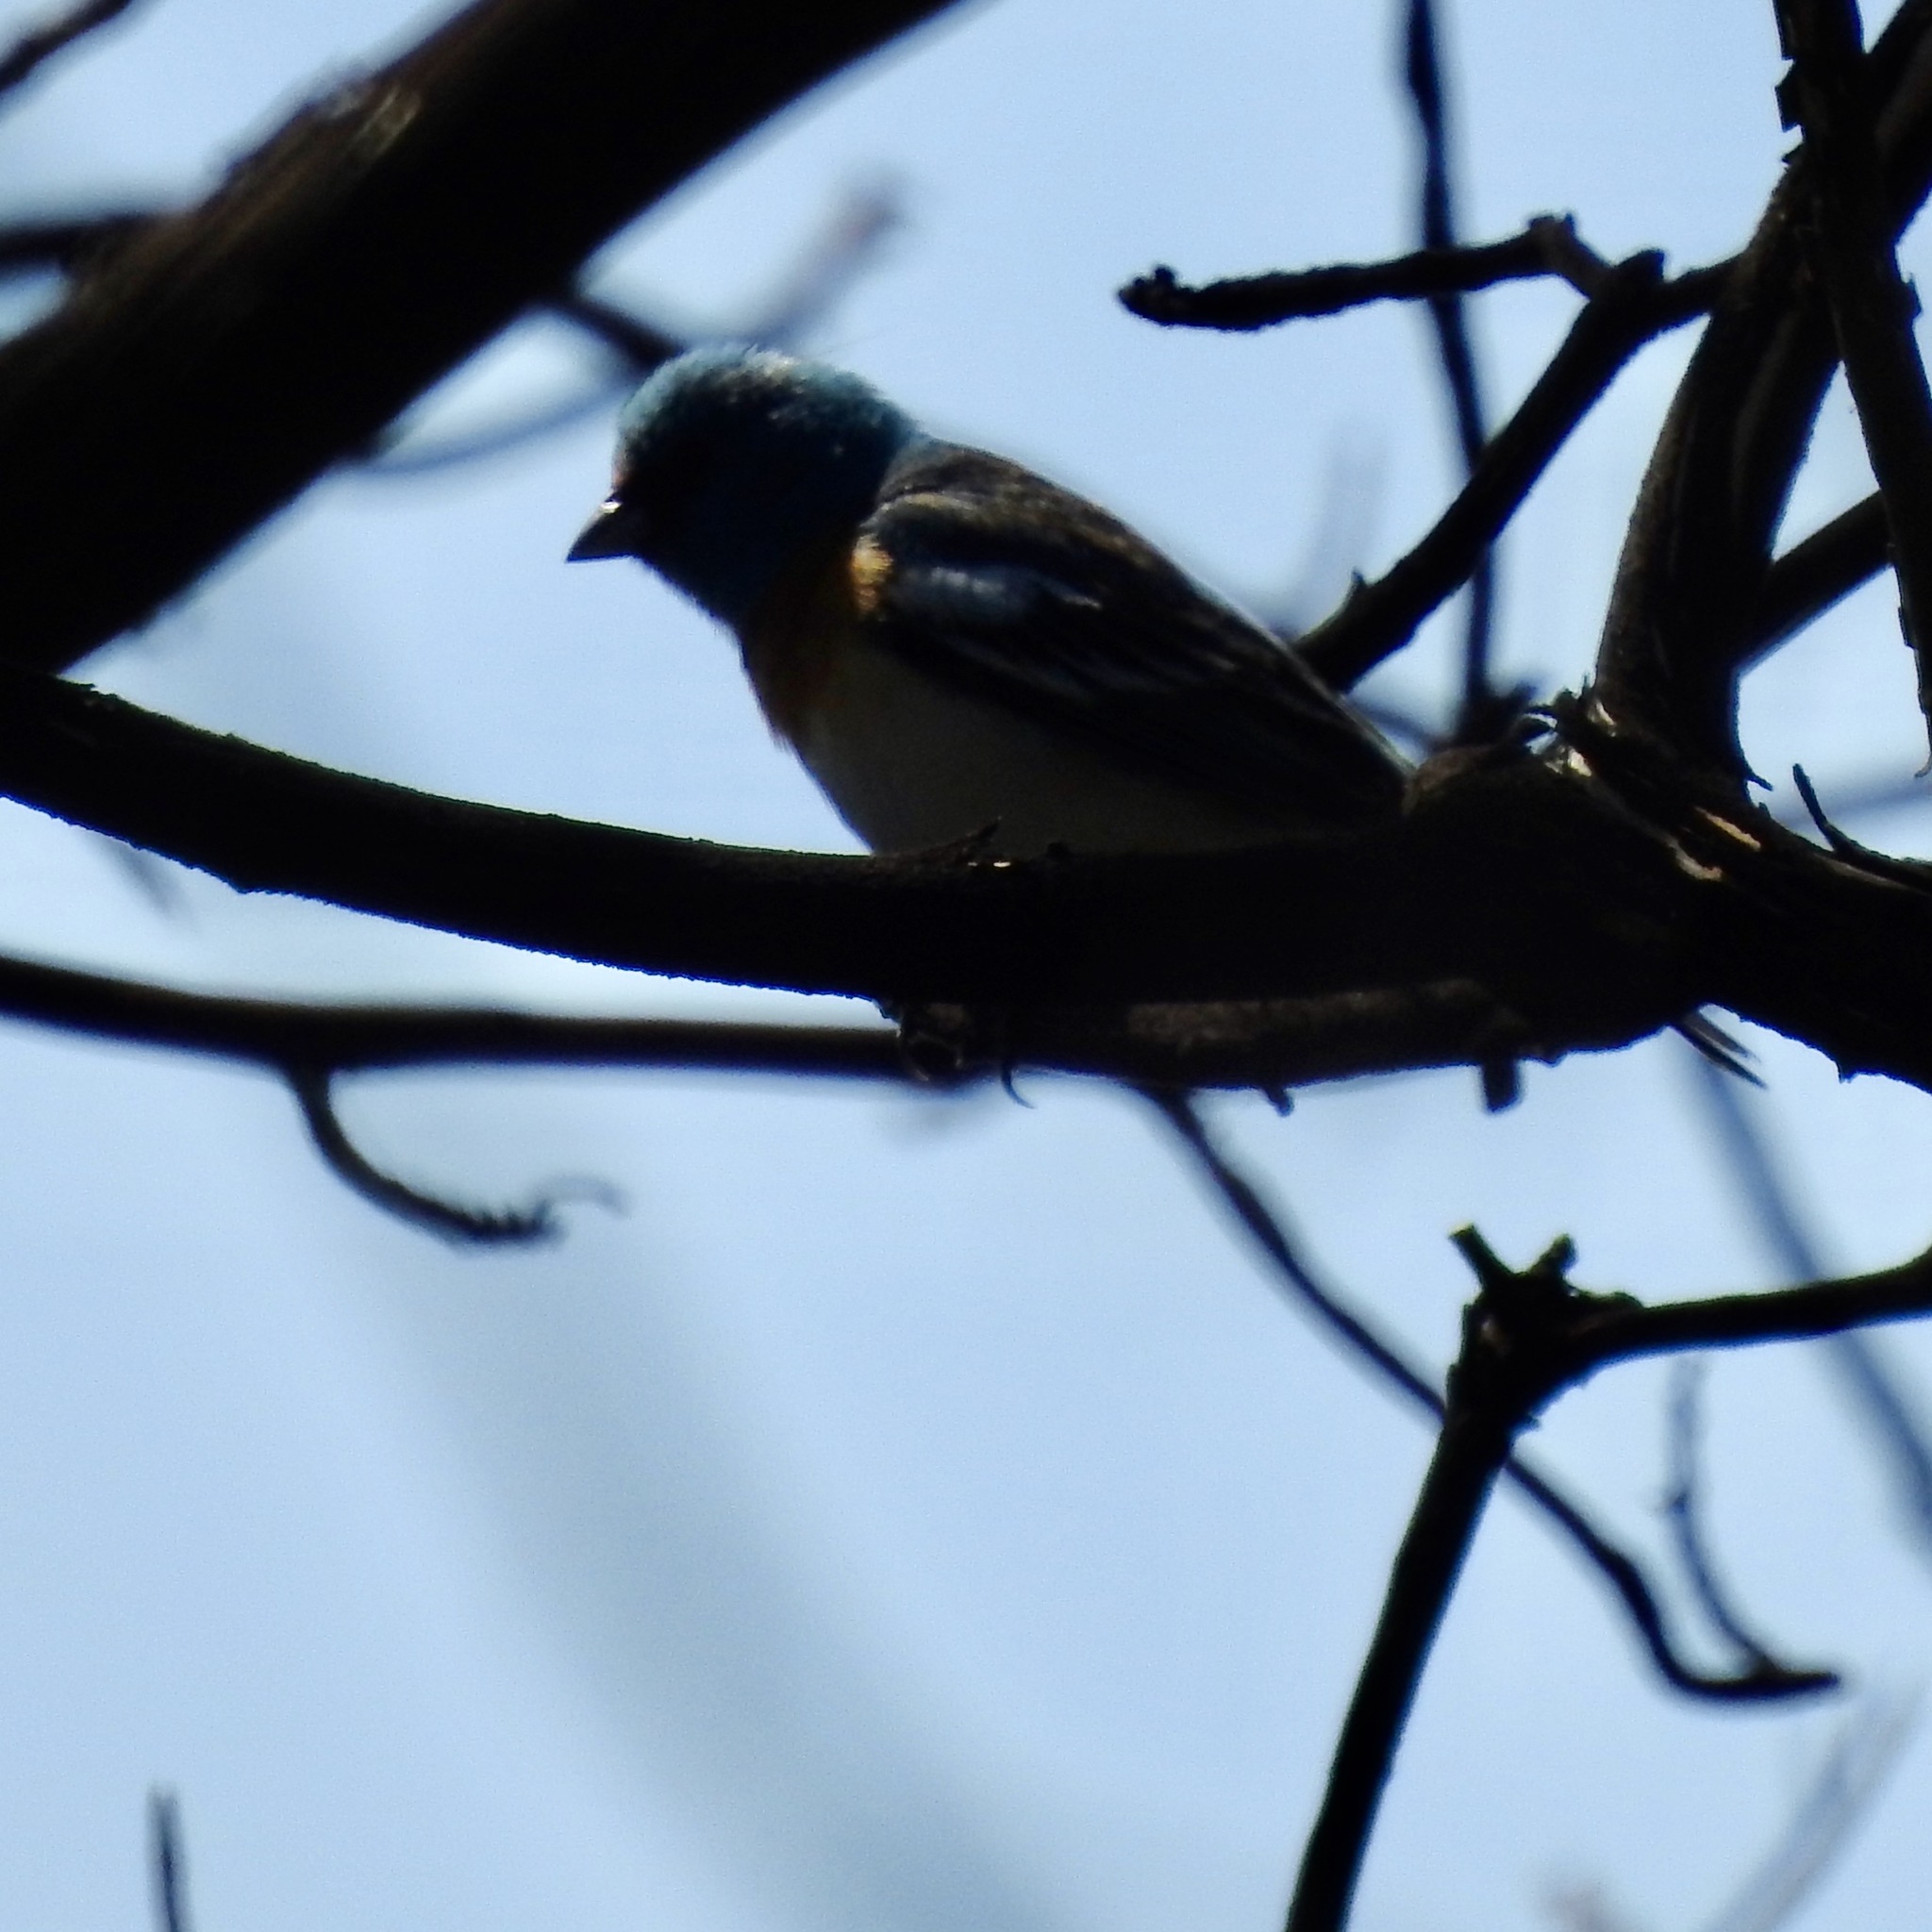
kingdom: Animalia
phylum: Chordata
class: Aves
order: Passeriformes
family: Cardinalidae
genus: Passerina
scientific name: Passerina amoena
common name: Lazuli bunting
